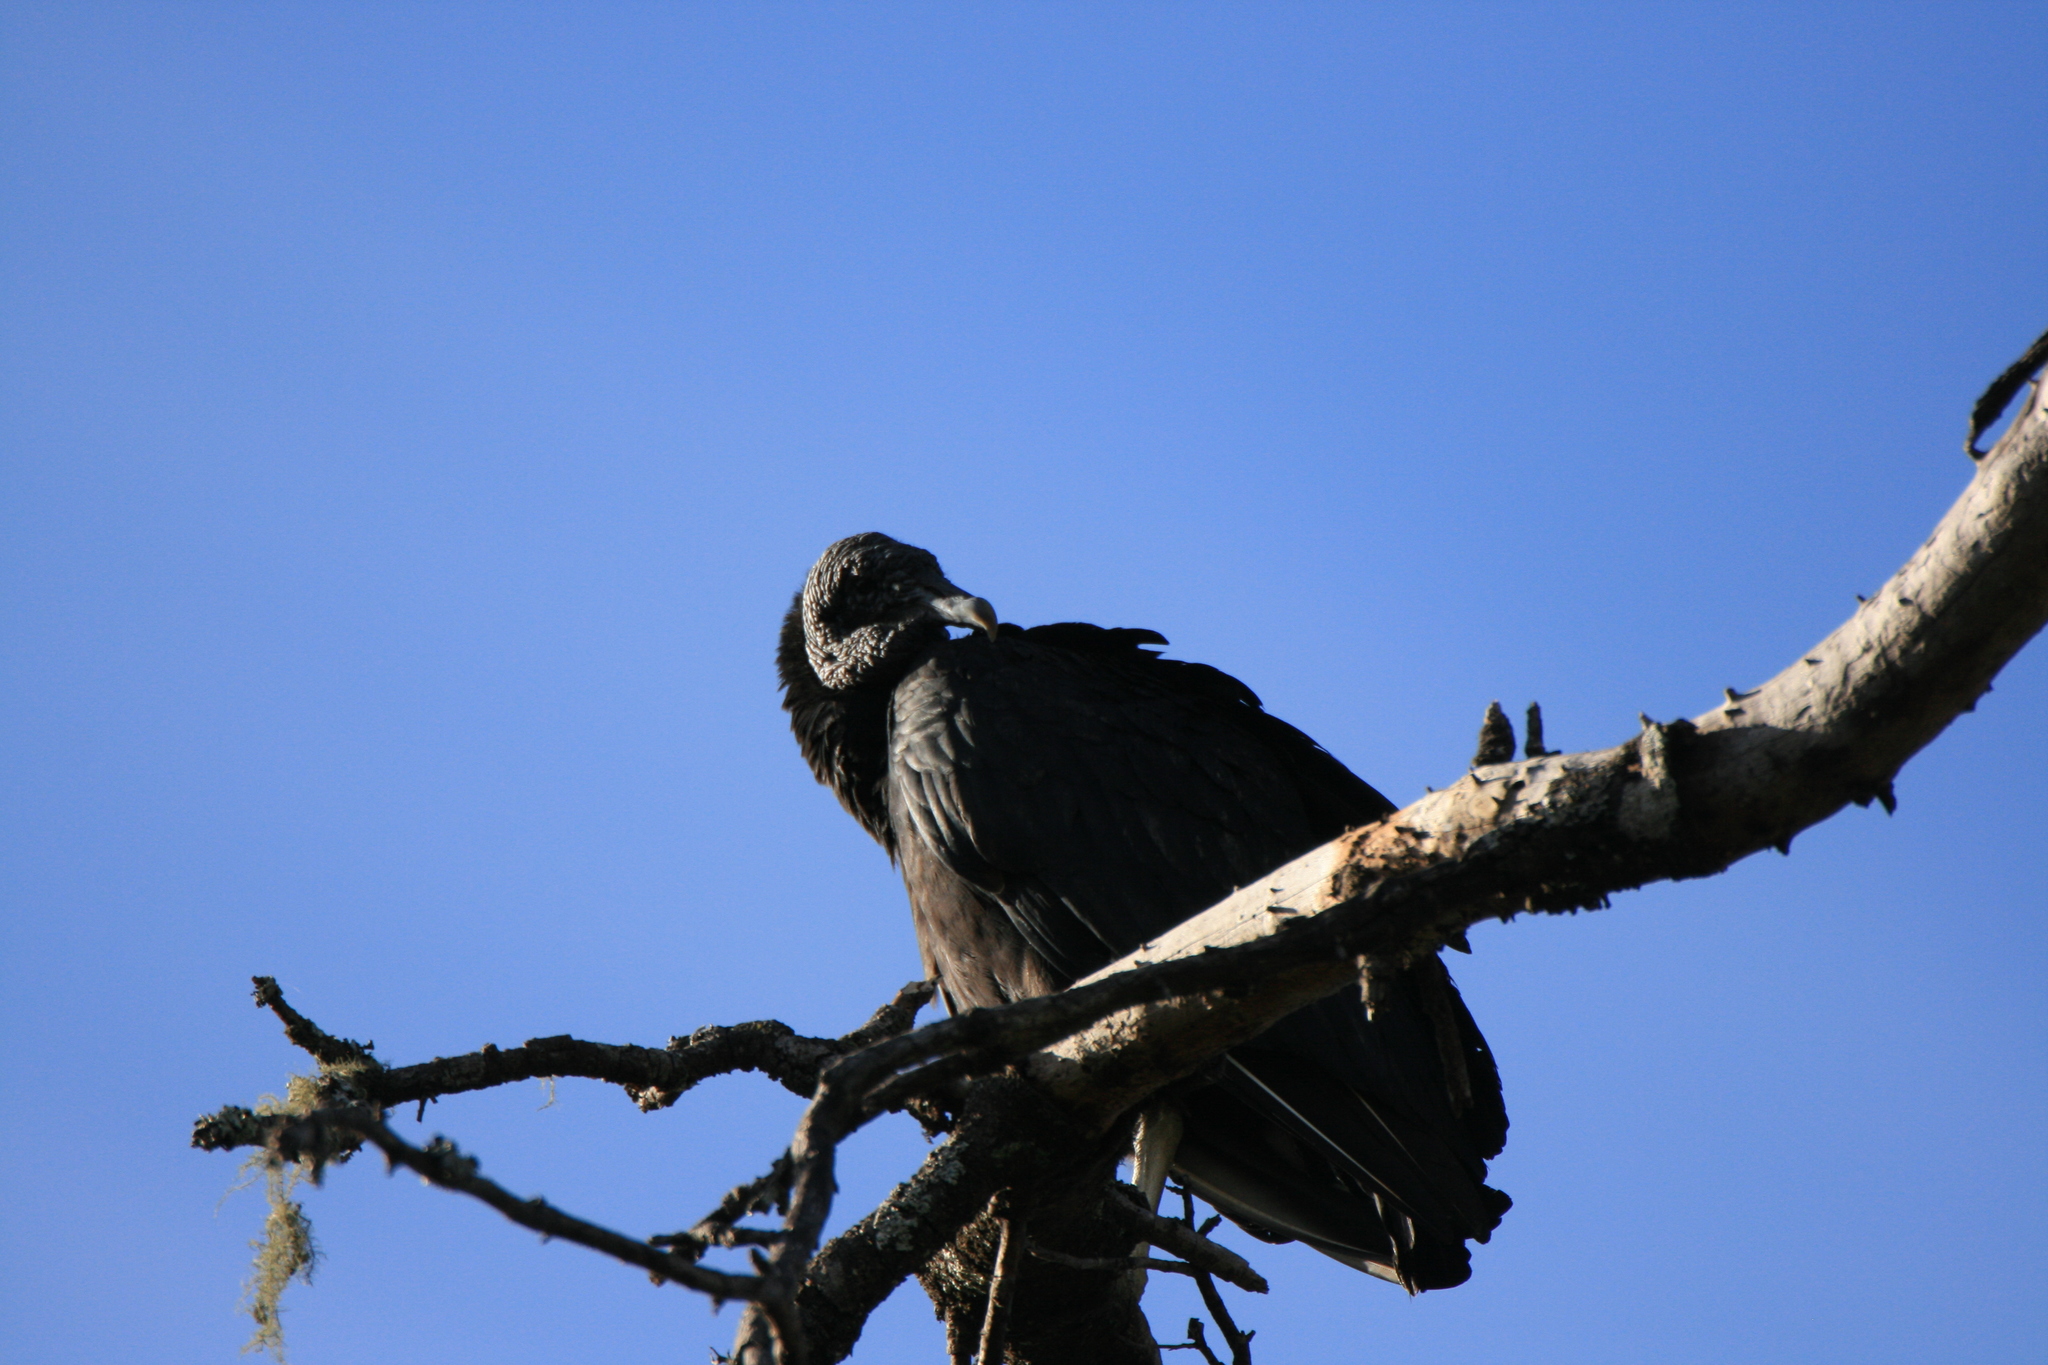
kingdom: Animalia
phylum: Chordata
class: Aves
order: Accipitriformes
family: Cathartidae
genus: Coragyps
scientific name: Coragyps atratus
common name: Black vulture
